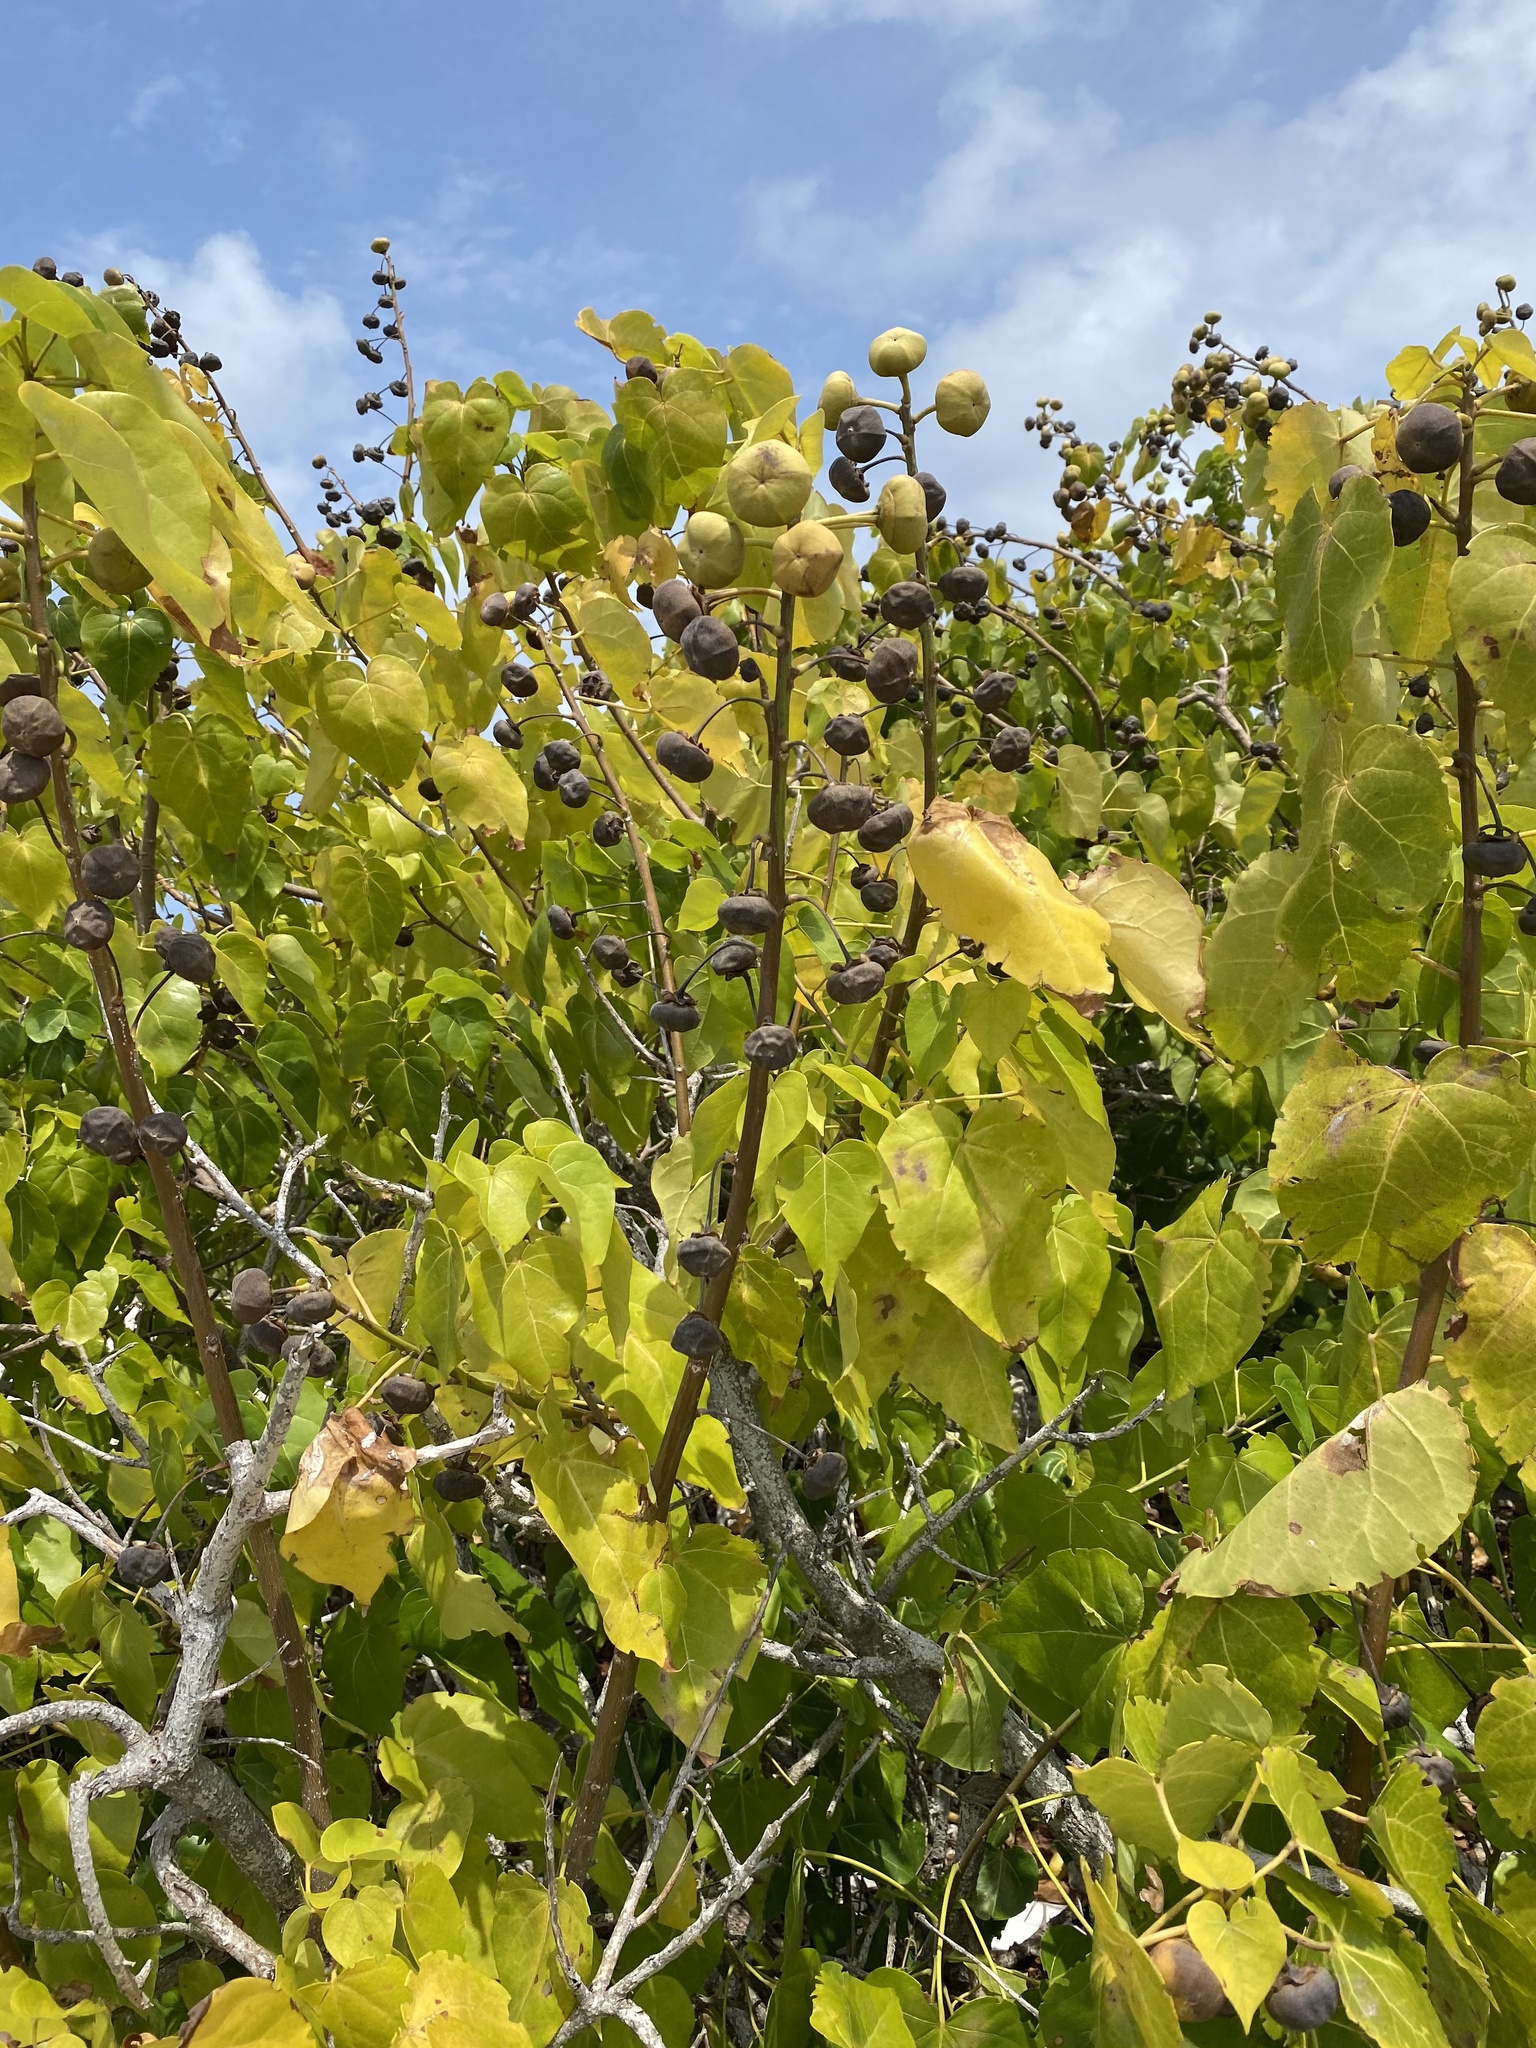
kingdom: Plantae
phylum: Tracheophyta
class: Magnoliopsida
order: Malvales
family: Malvaceae
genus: Thespesia
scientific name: Thespesia populnea
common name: Seaside mahoe
